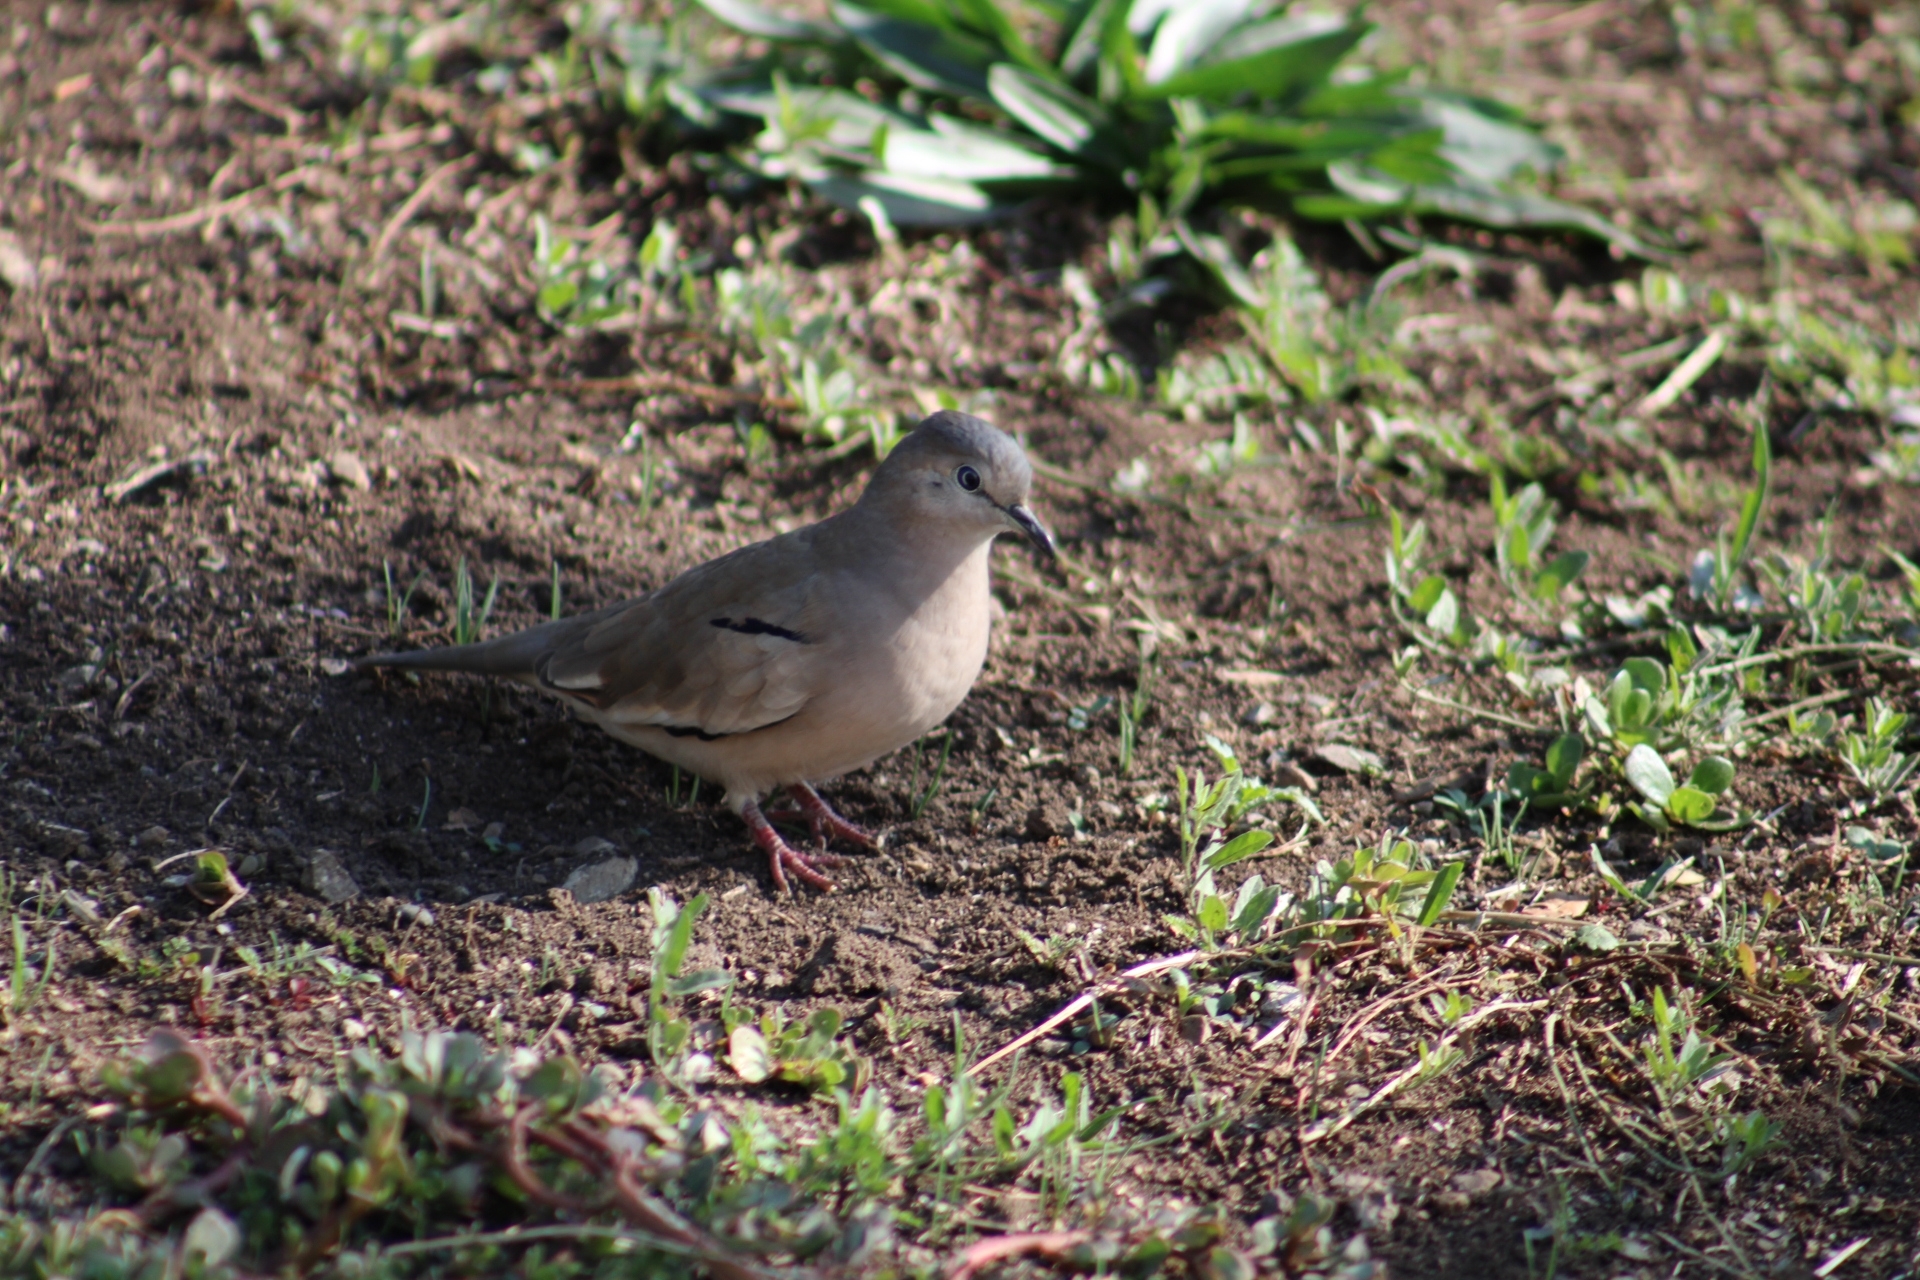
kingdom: Animalia
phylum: Chordata
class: Aves
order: Columbiformes
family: Columbidae
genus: Columbina
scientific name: Columbina picui
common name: Picui ground dove
